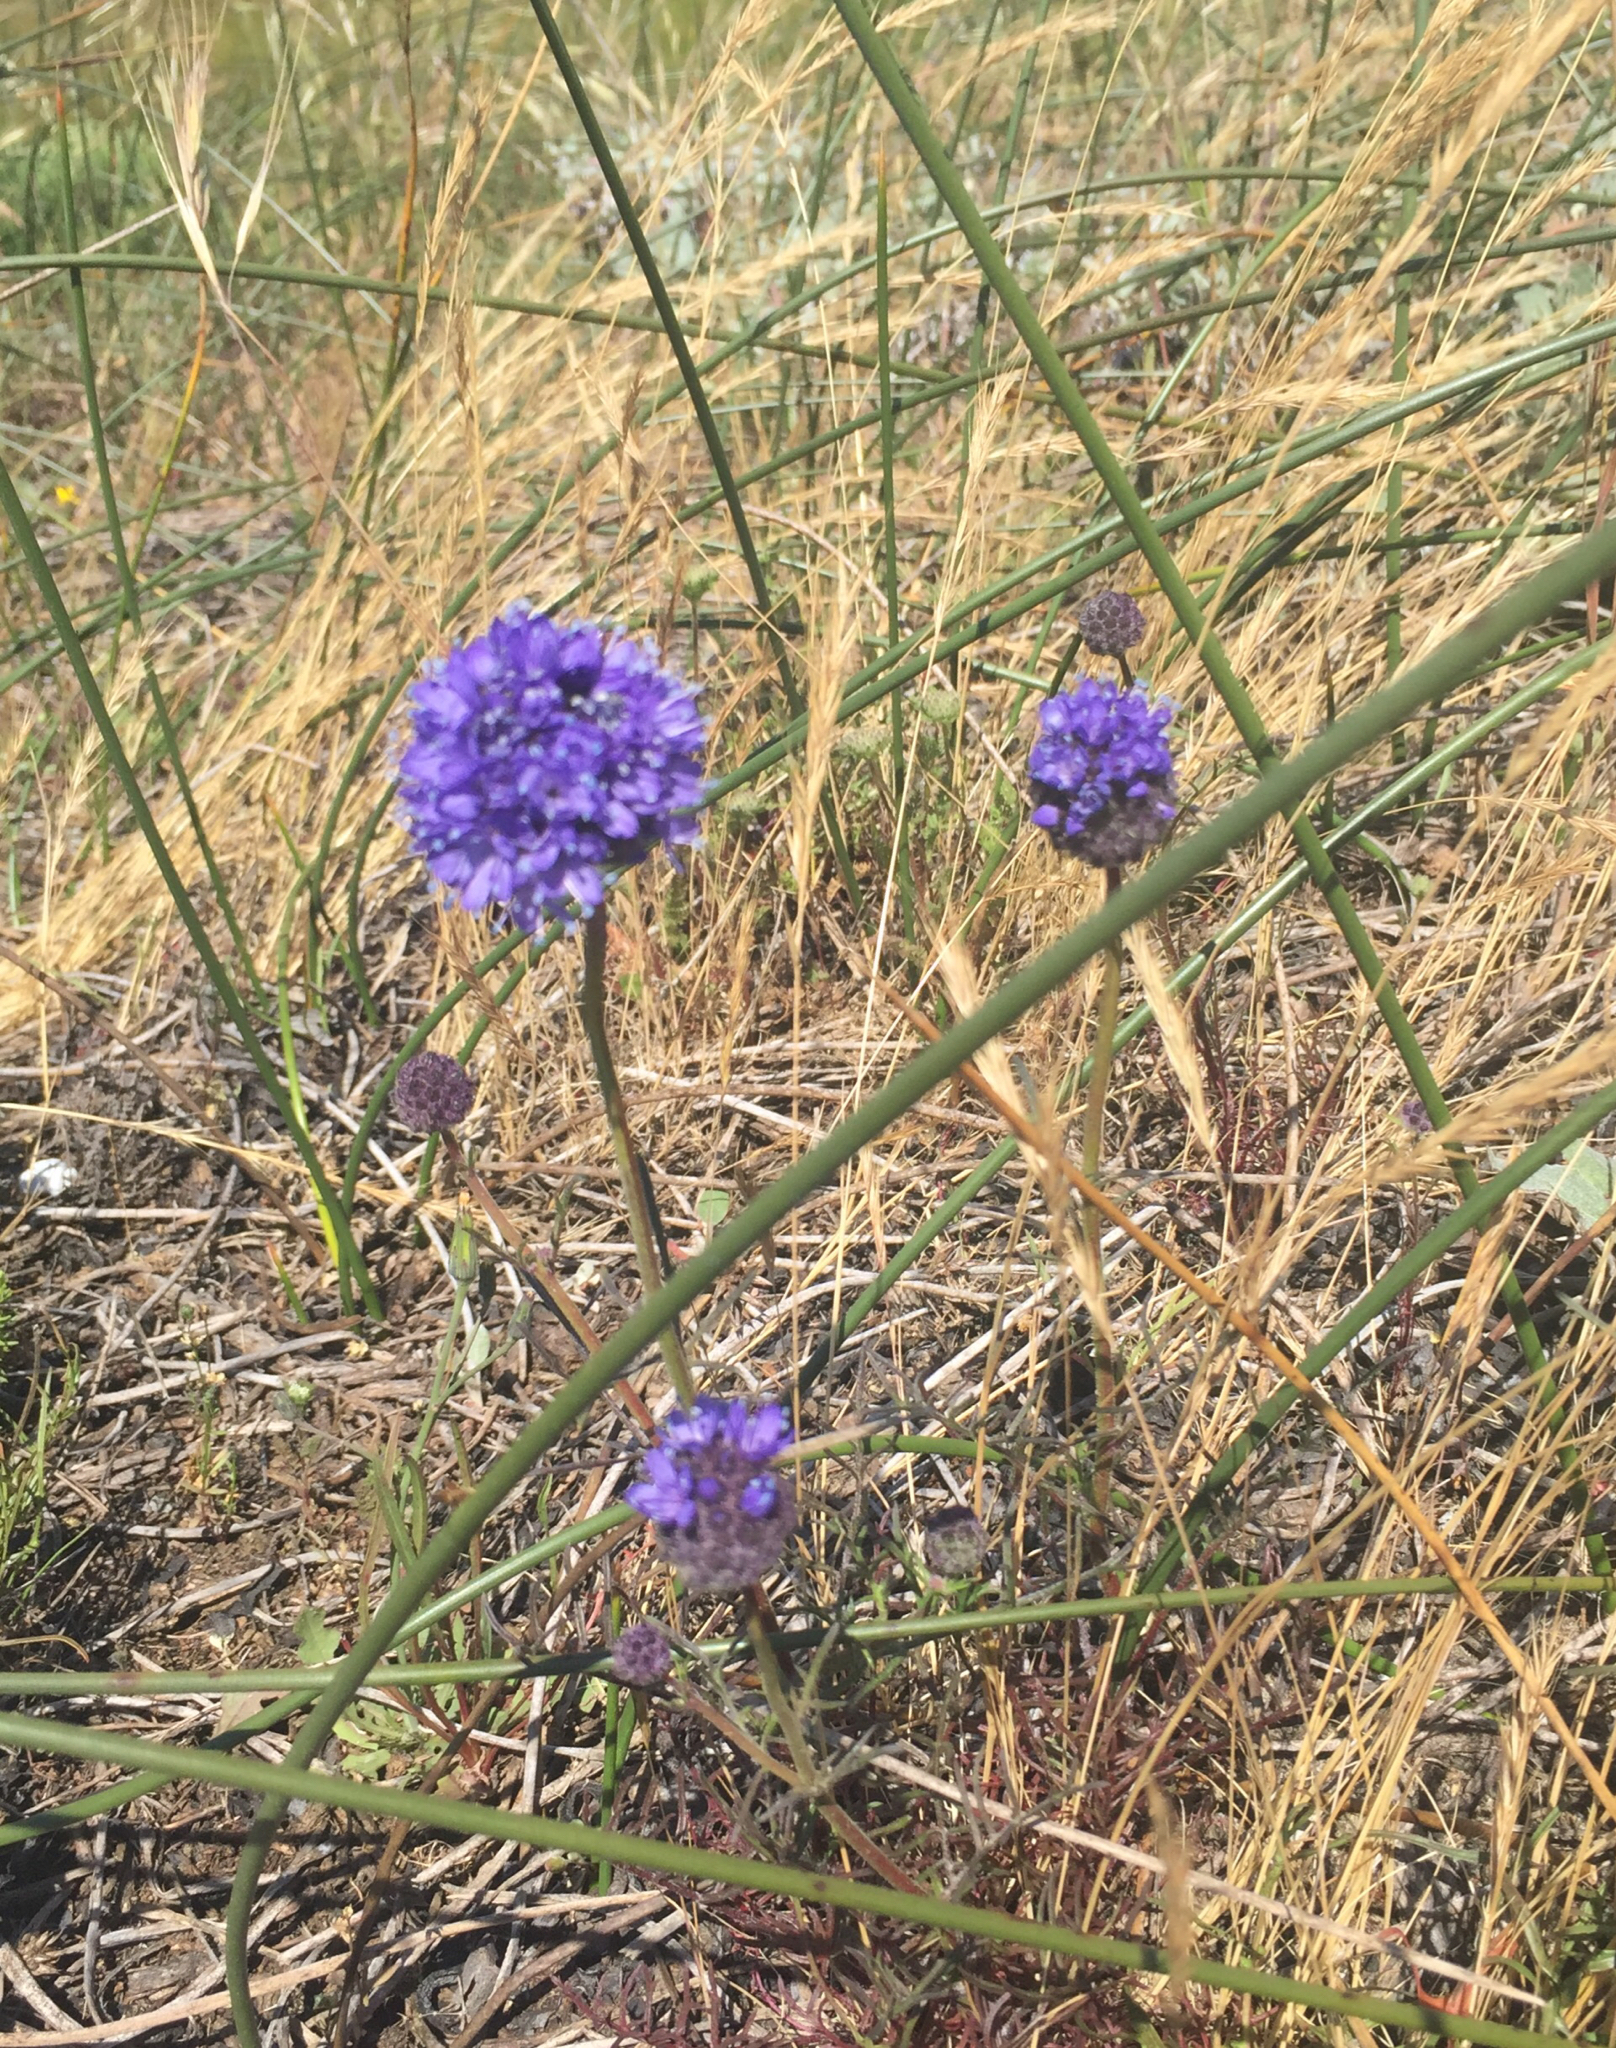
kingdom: Plantae
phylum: Tracheophyta
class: Magnoliopsida
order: Ericales
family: Polemoniaceae
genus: Gilia
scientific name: Gilia capitata
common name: Bluehead gilia
